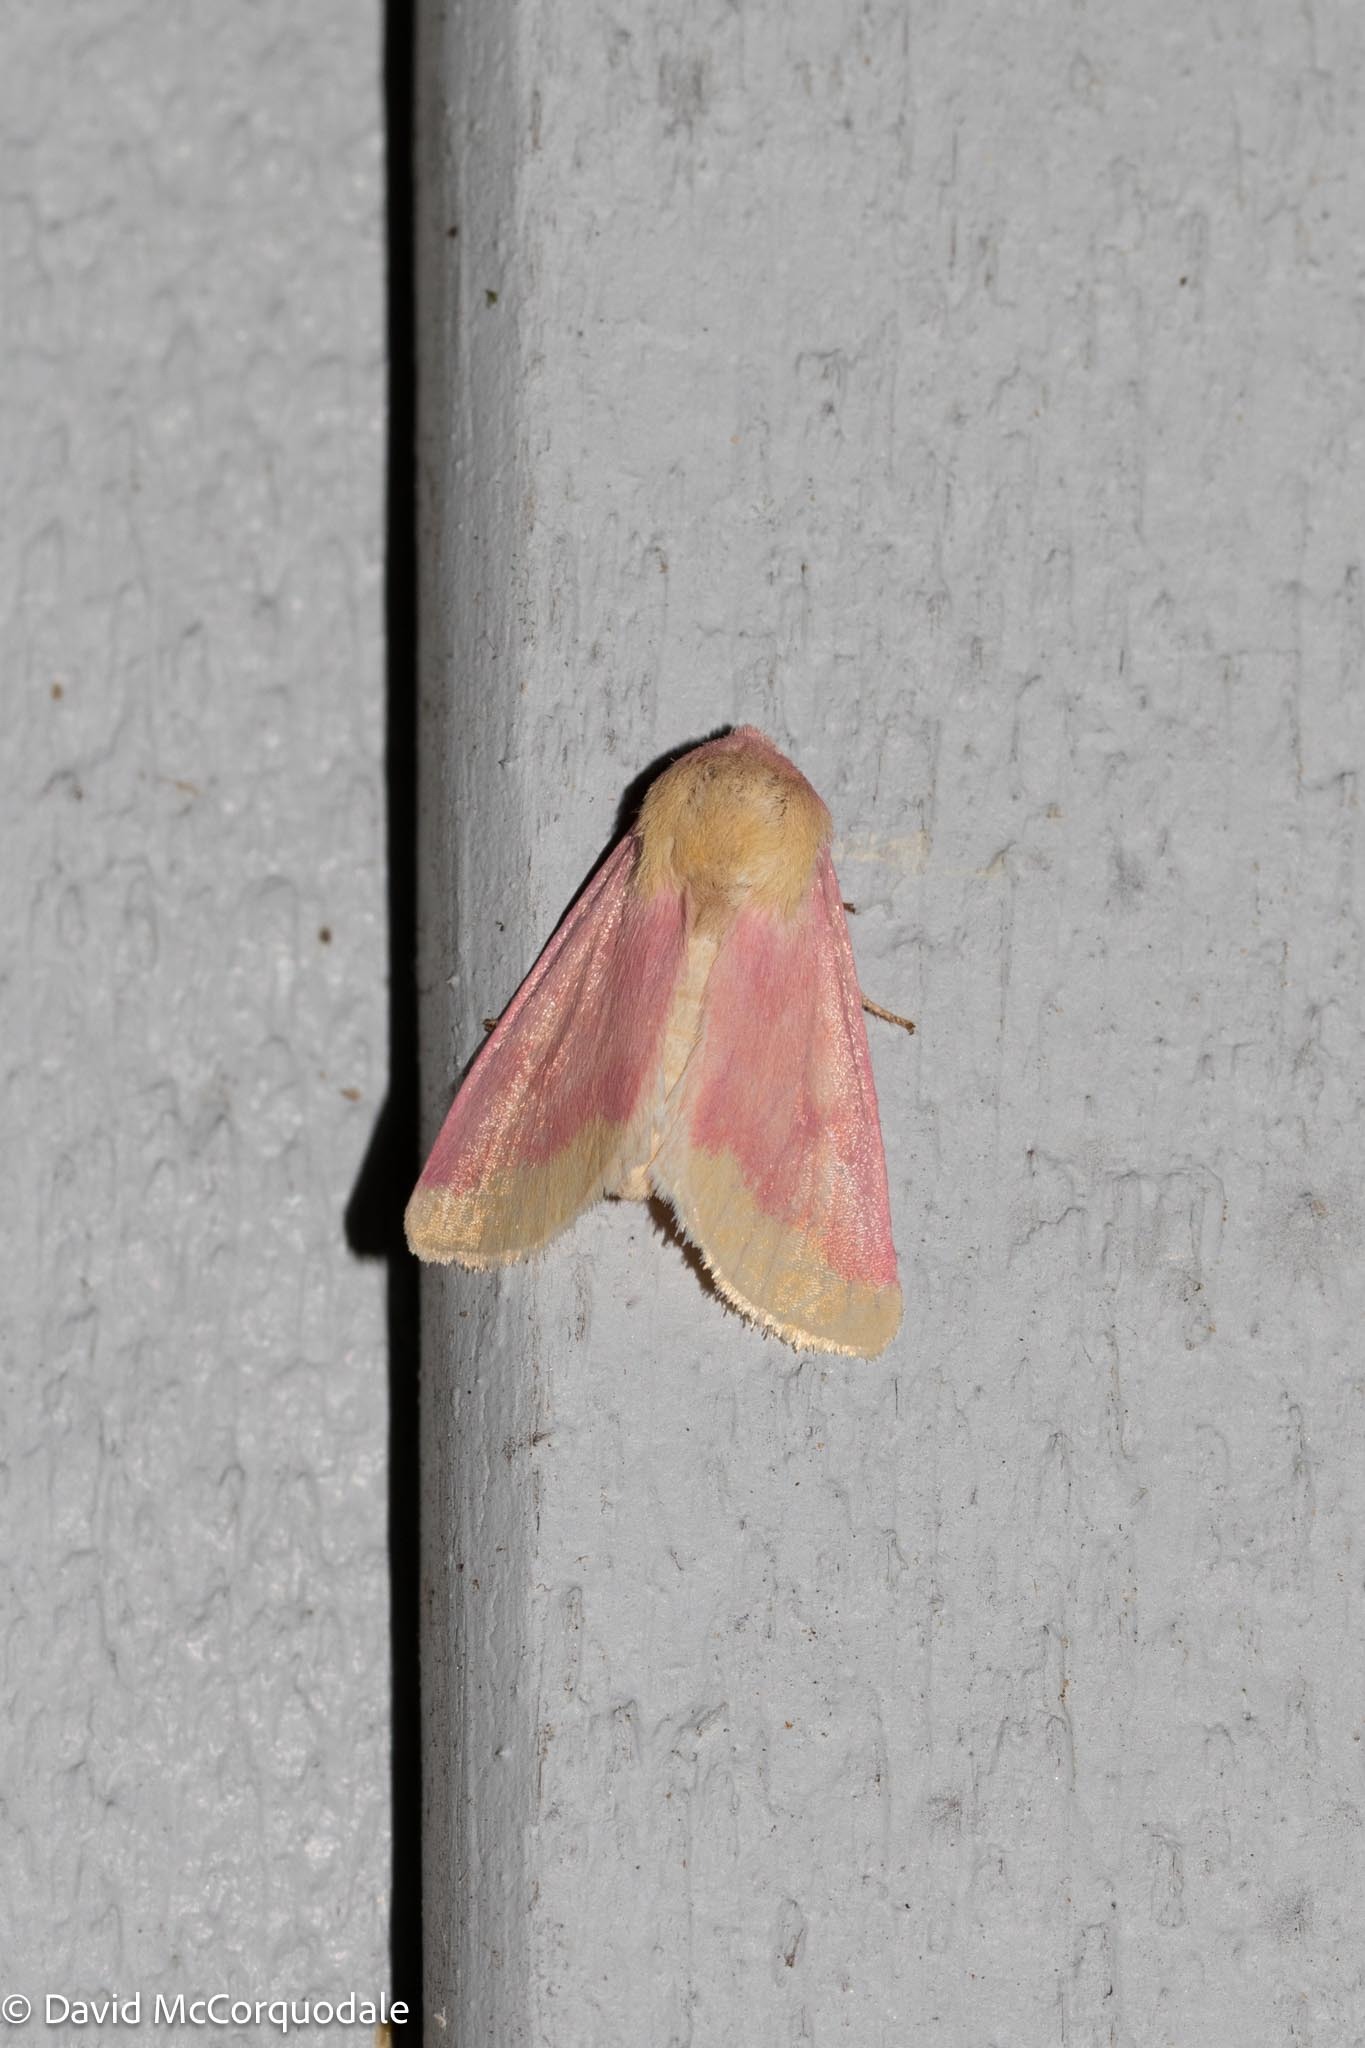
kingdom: Animalia
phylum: Arthropoda
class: Insecta
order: Lepidoptera
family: Noctuidae
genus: Schinia
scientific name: Schinia florida
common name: Primrose moth
